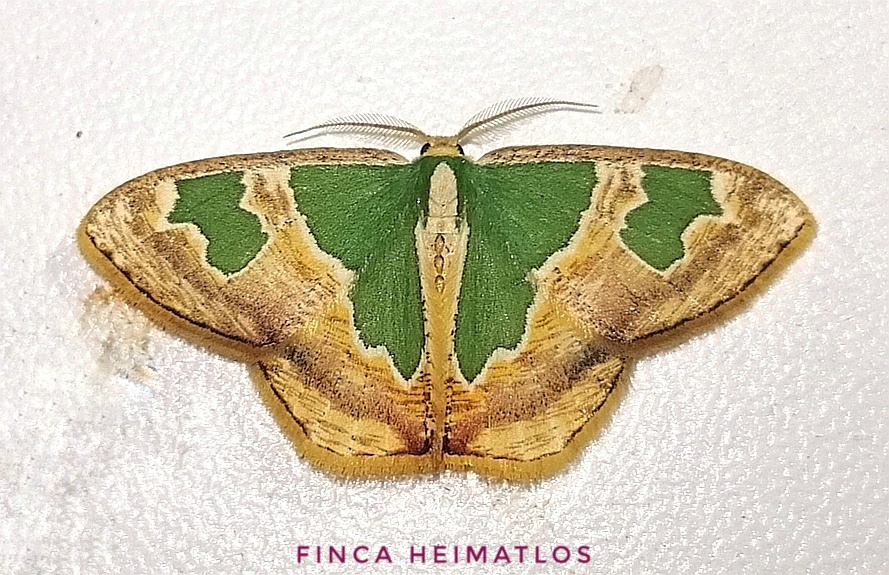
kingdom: Animalia
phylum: Arthropoda
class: Insecta
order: Lepidoptera
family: Geometridae
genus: Oospila
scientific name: Oospila venezuelata
